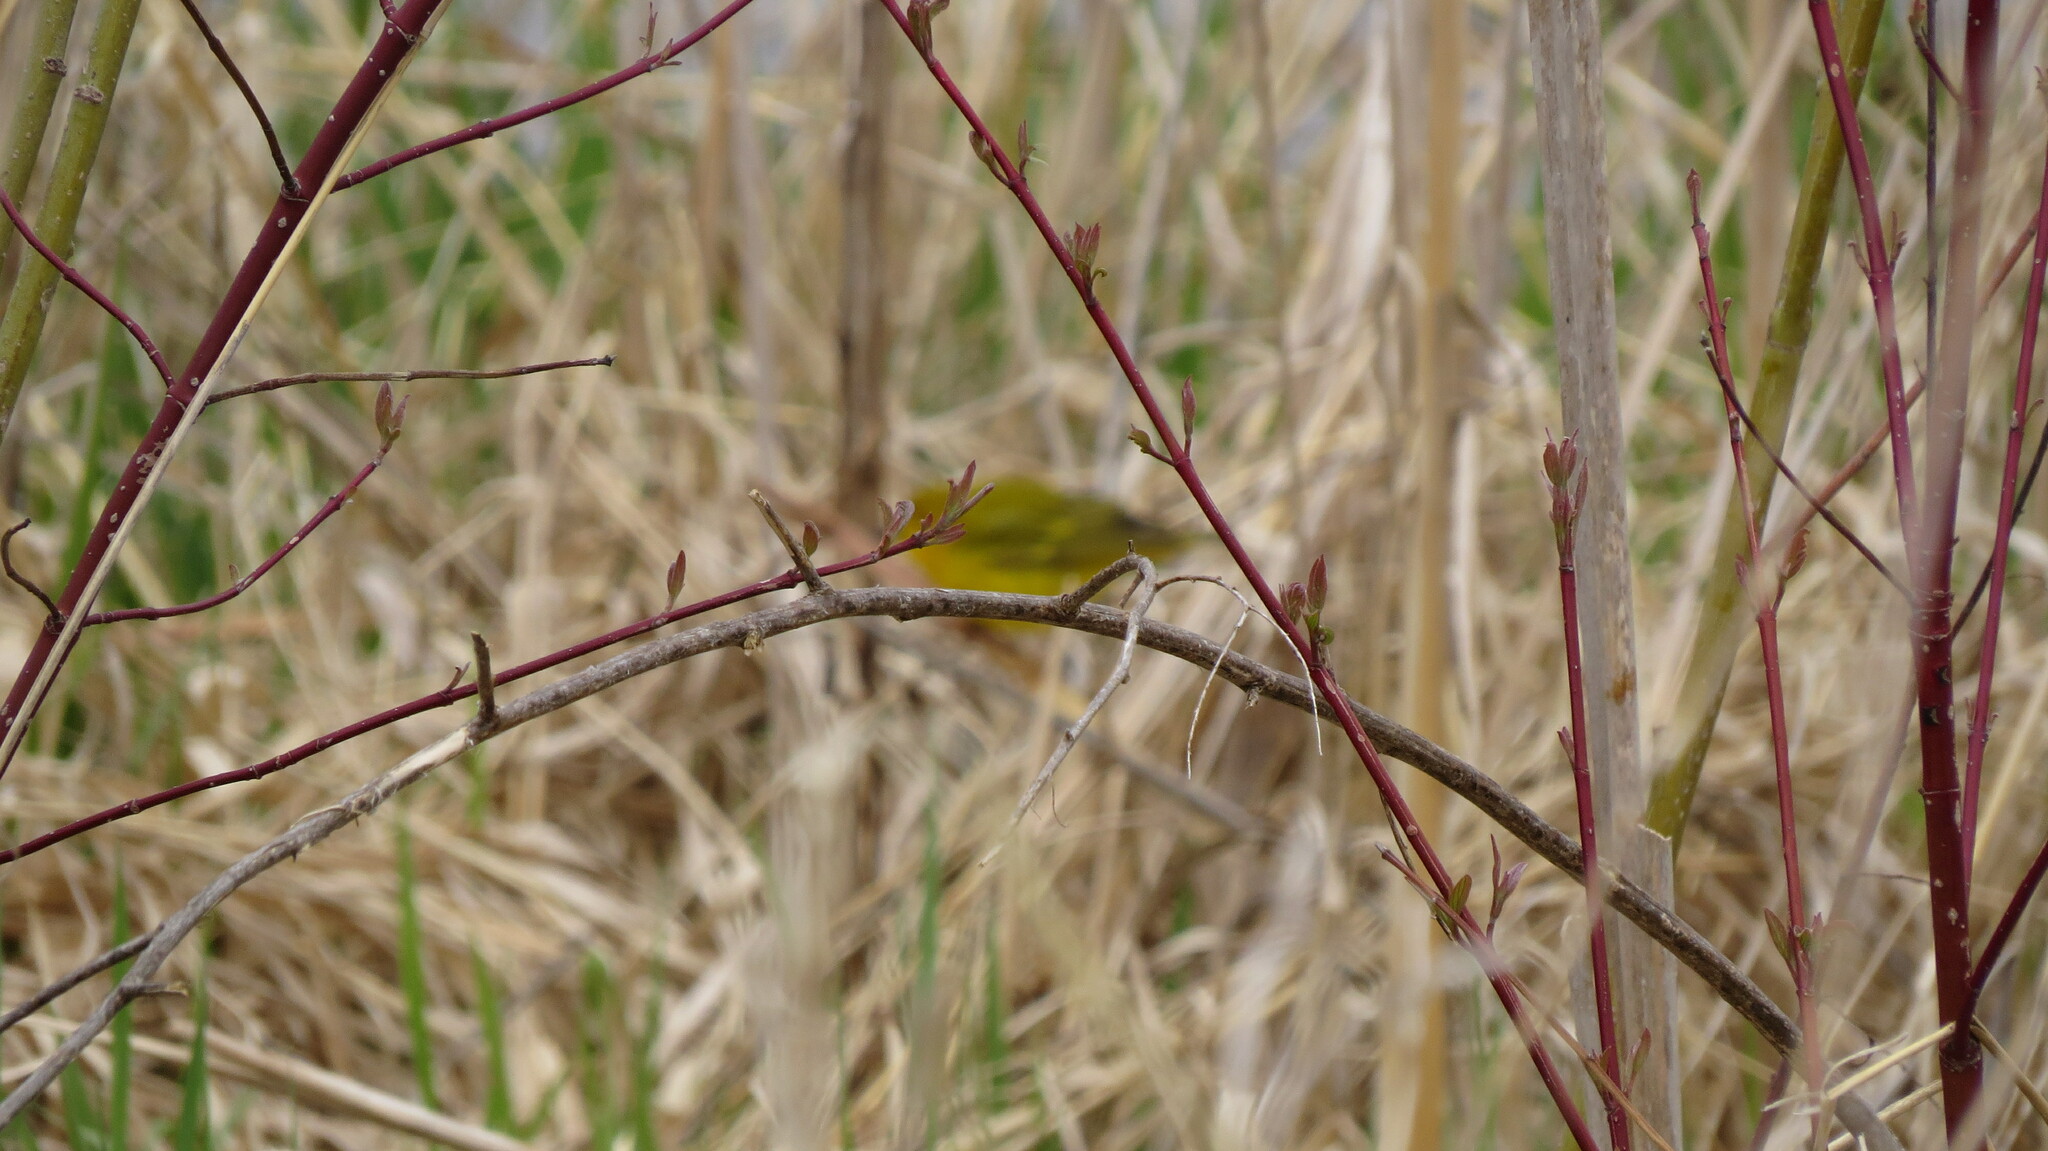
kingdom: Animalia
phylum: Chordata
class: Aves
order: Passeriformes
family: Parulidae
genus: Setophaga
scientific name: Setophaga petechia
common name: Yellow warbler
